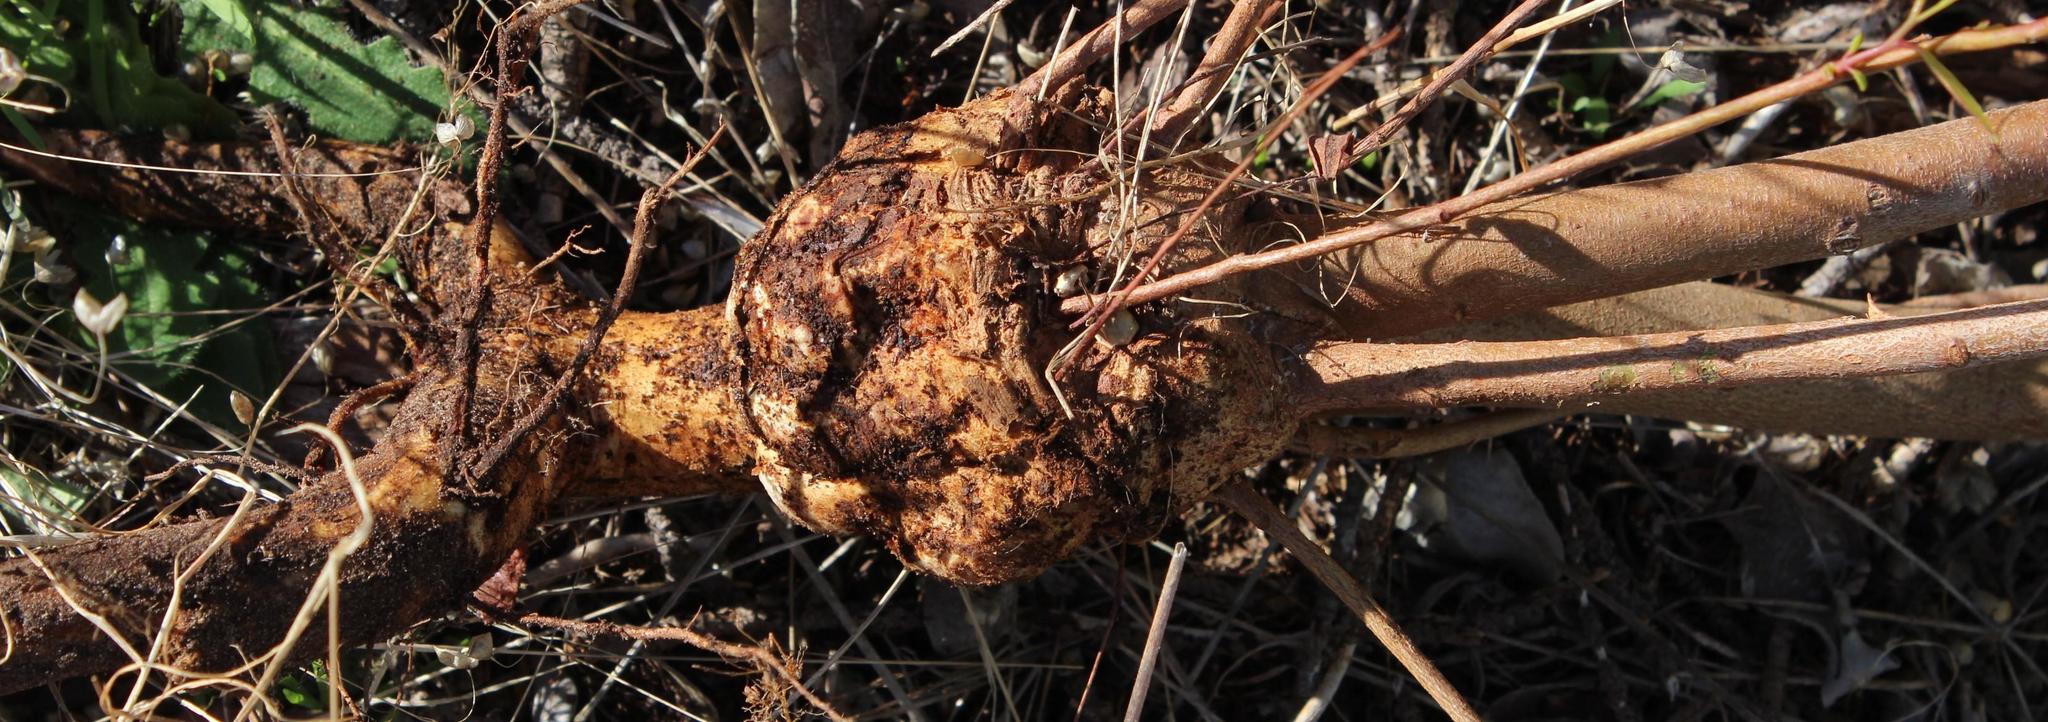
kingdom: Plantae
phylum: Tracheophyta
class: Magnoliopsida
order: Myrtales
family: Myrtaceae
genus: Corymbia
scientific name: Corymbia ficifolia
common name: Redflower gum
